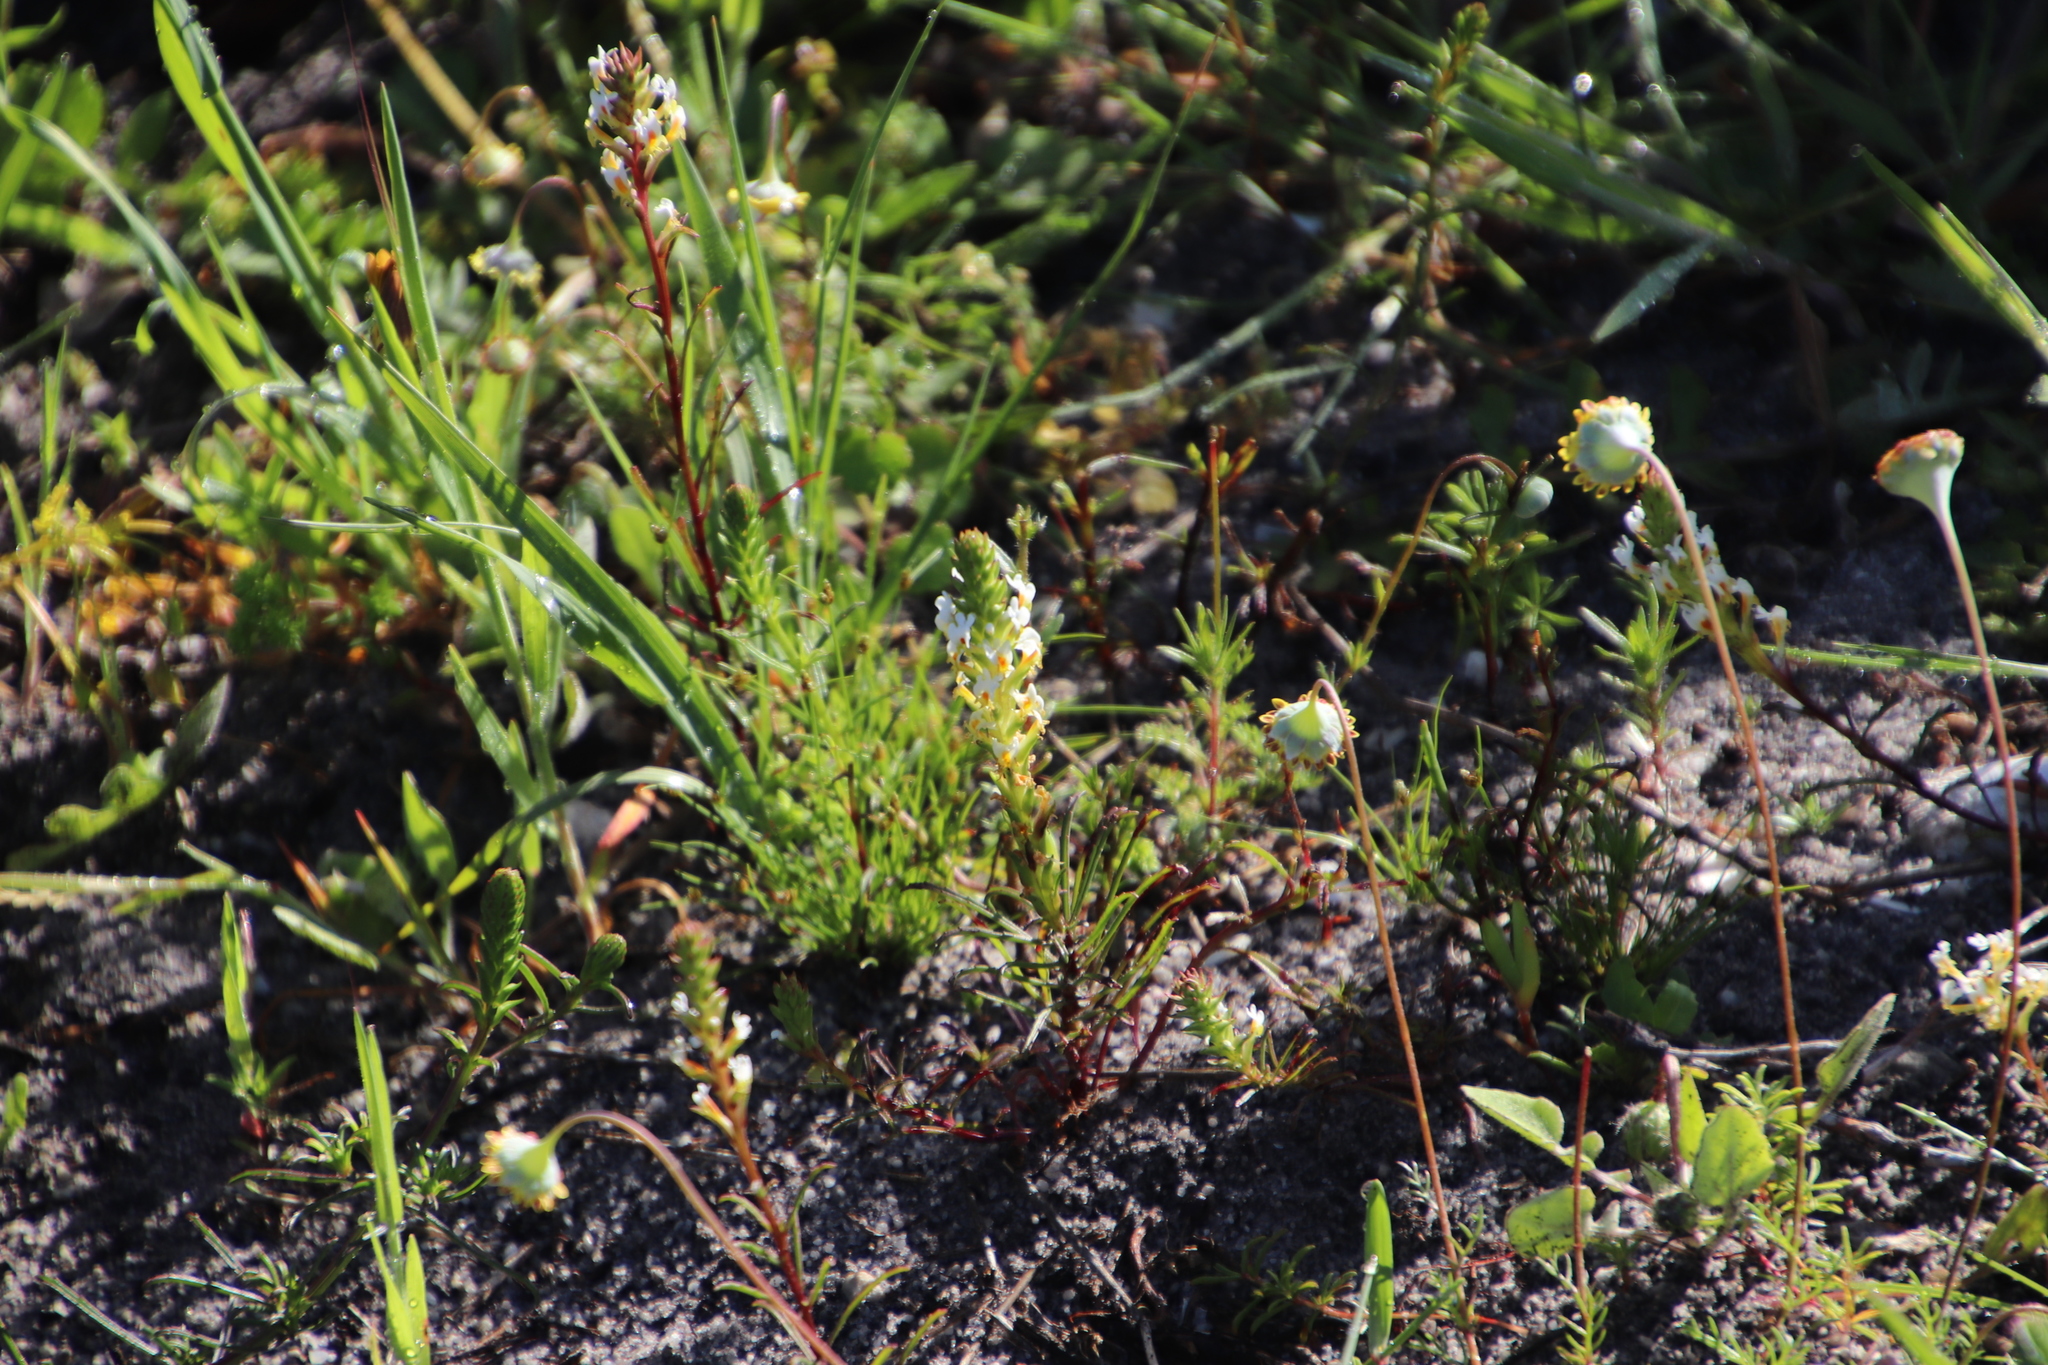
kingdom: Plantae
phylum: Tracheophyta
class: Magnoliopsida
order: Lamiales
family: Scrophulariaceae
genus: Hebenstretia
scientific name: Hebenstretia repens
